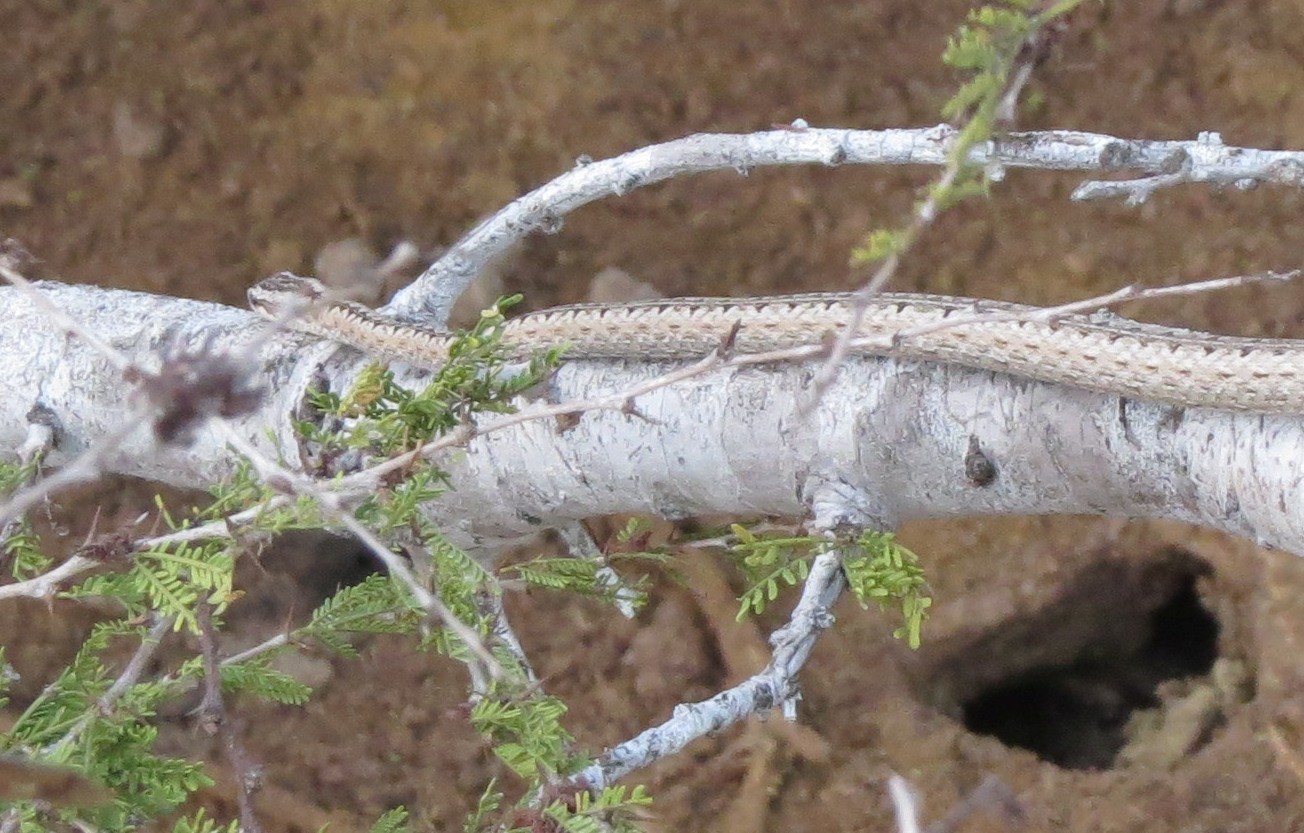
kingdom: Animalia
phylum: Chordata
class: Squamata
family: Psammophiidae
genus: Mimophis
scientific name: Mimophis mahfalensis
